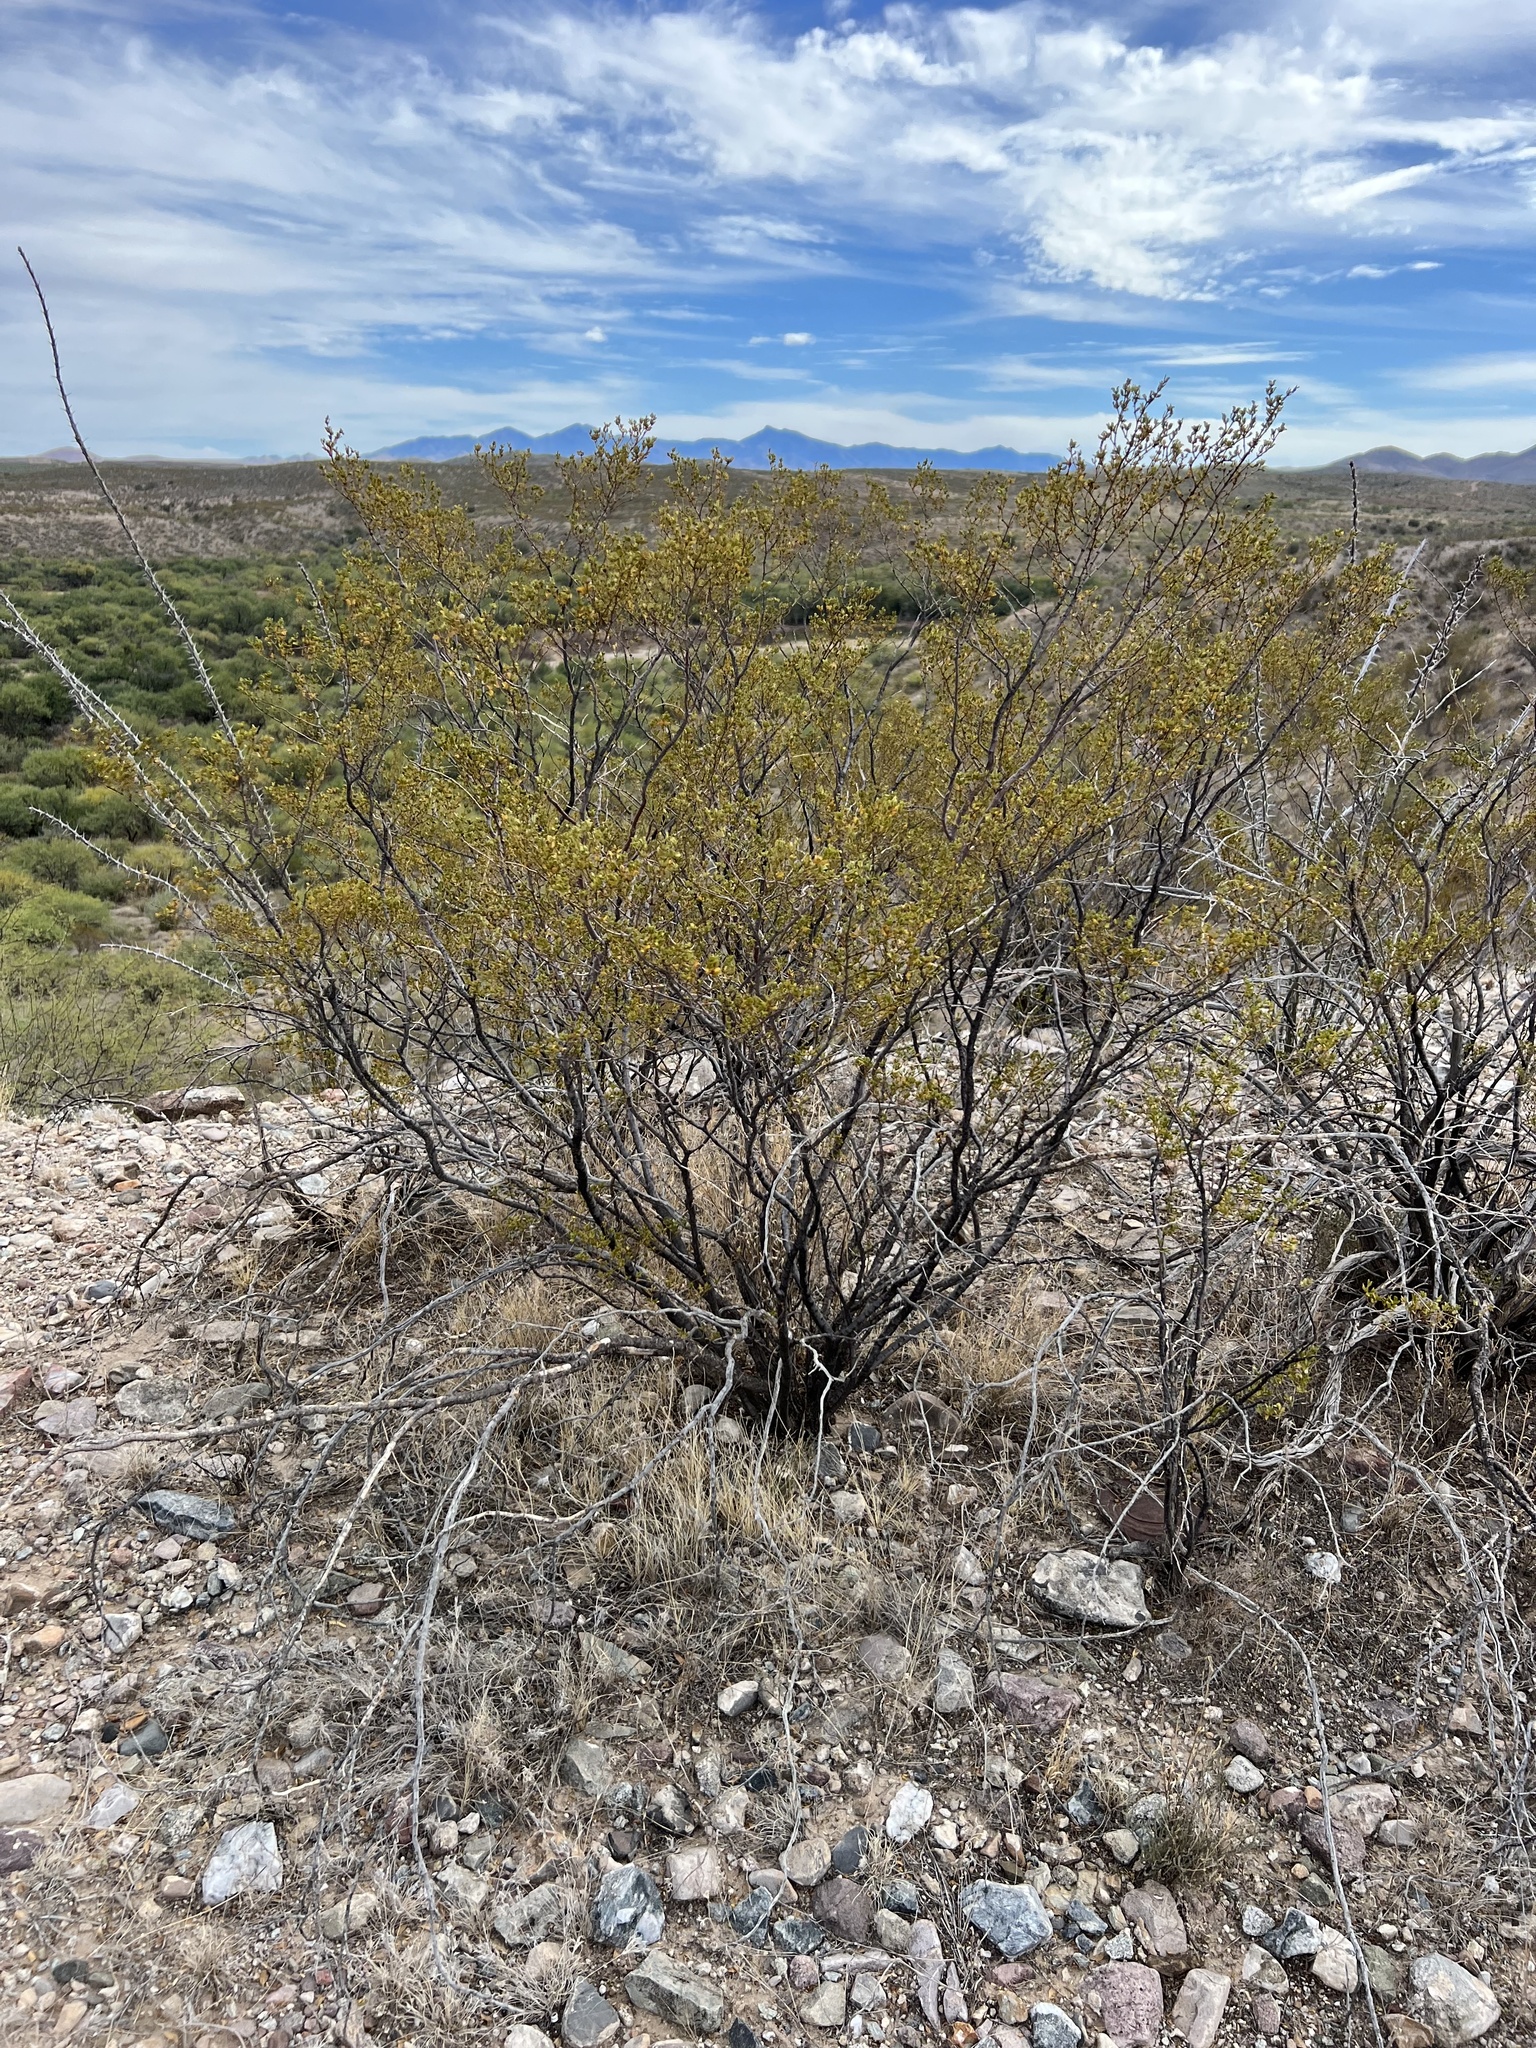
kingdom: Plantae
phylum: Tracheophyta
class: Magnoliopsida
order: Zygophyllales
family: Zygophyllaceae
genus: Larrea
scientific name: Larrea tridentata
